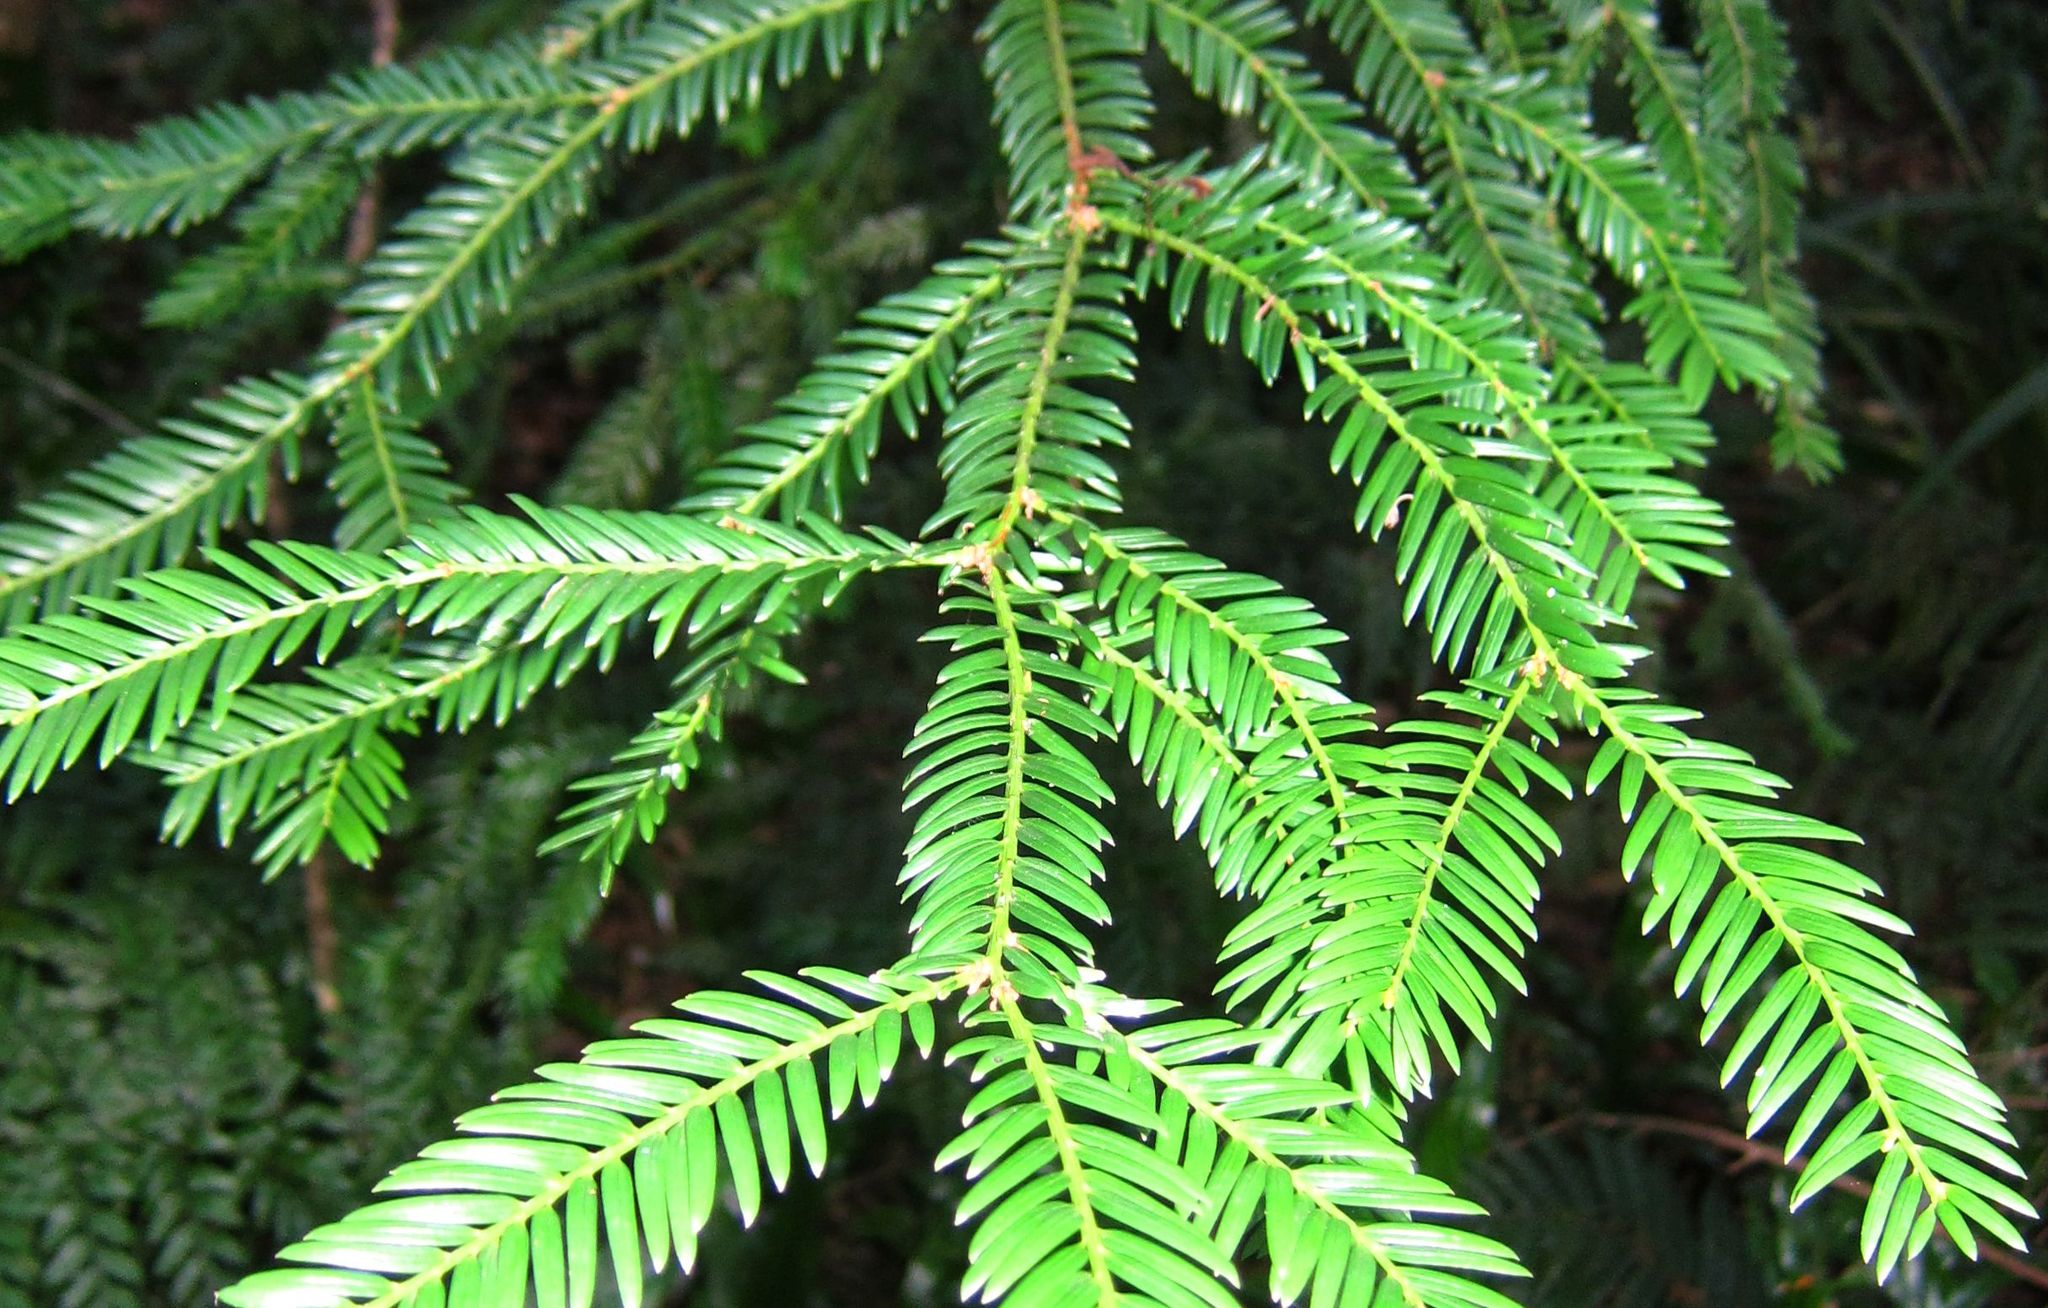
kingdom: Plantae
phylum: Tracheophyta
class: Pinopsida
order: Pinales
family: Taxaceae
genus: Taxus
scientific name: Taxus baccata
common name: Yew
